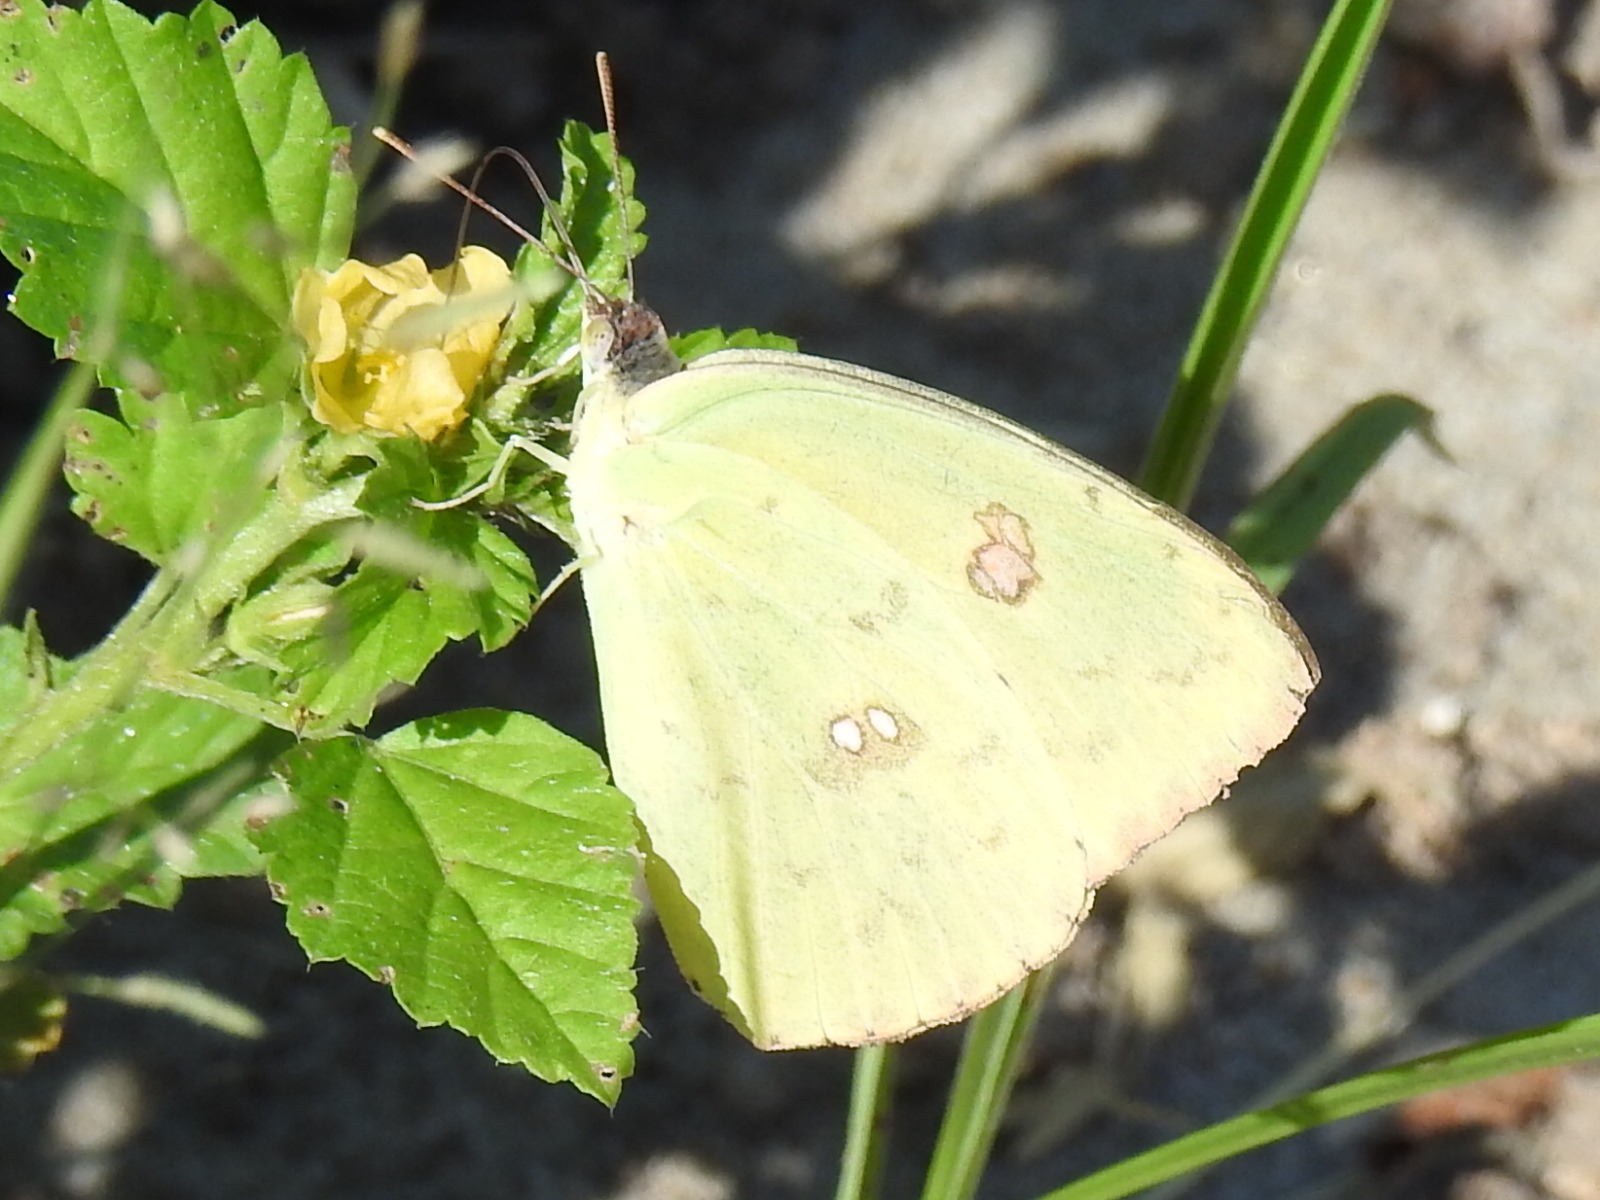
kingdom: Animalia
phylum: Arthropoda
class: Insecta
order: Lepidoptera
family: Pieridae
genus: Phoebis
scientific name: Phoebis sennae
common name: Cloudless sulphur
